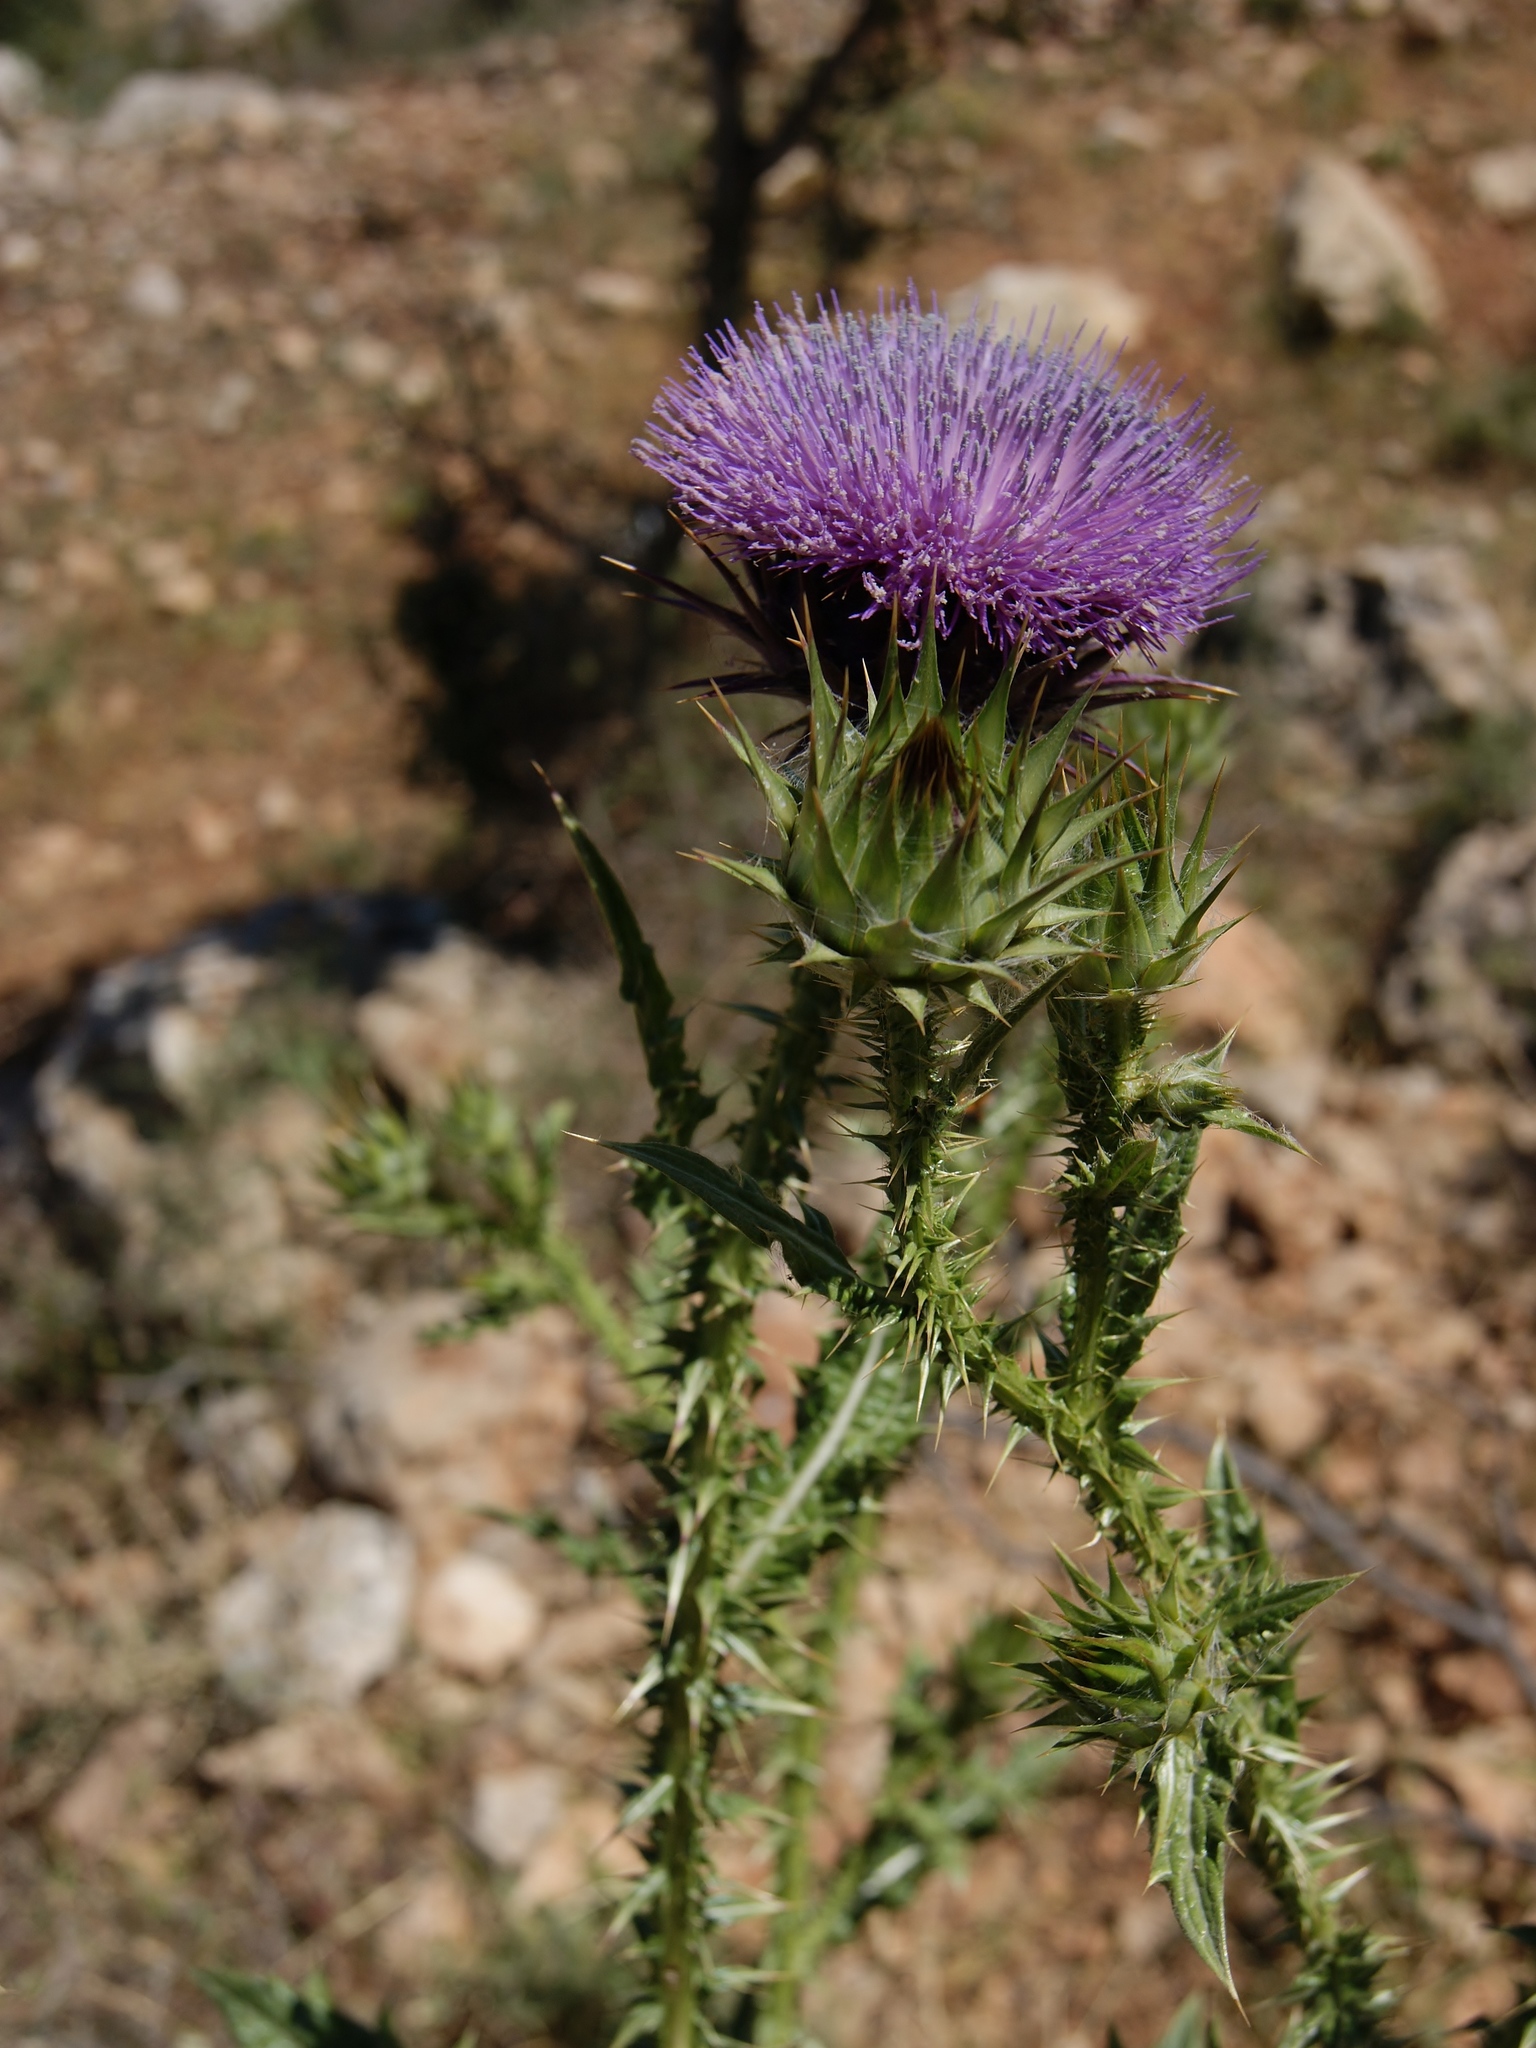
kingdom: Plantae
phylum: Tracheophyta
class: Magnoliopsida
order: Asterales
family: Asteraceae
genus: Onopordum
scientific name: Onopordum cynarocephalum
